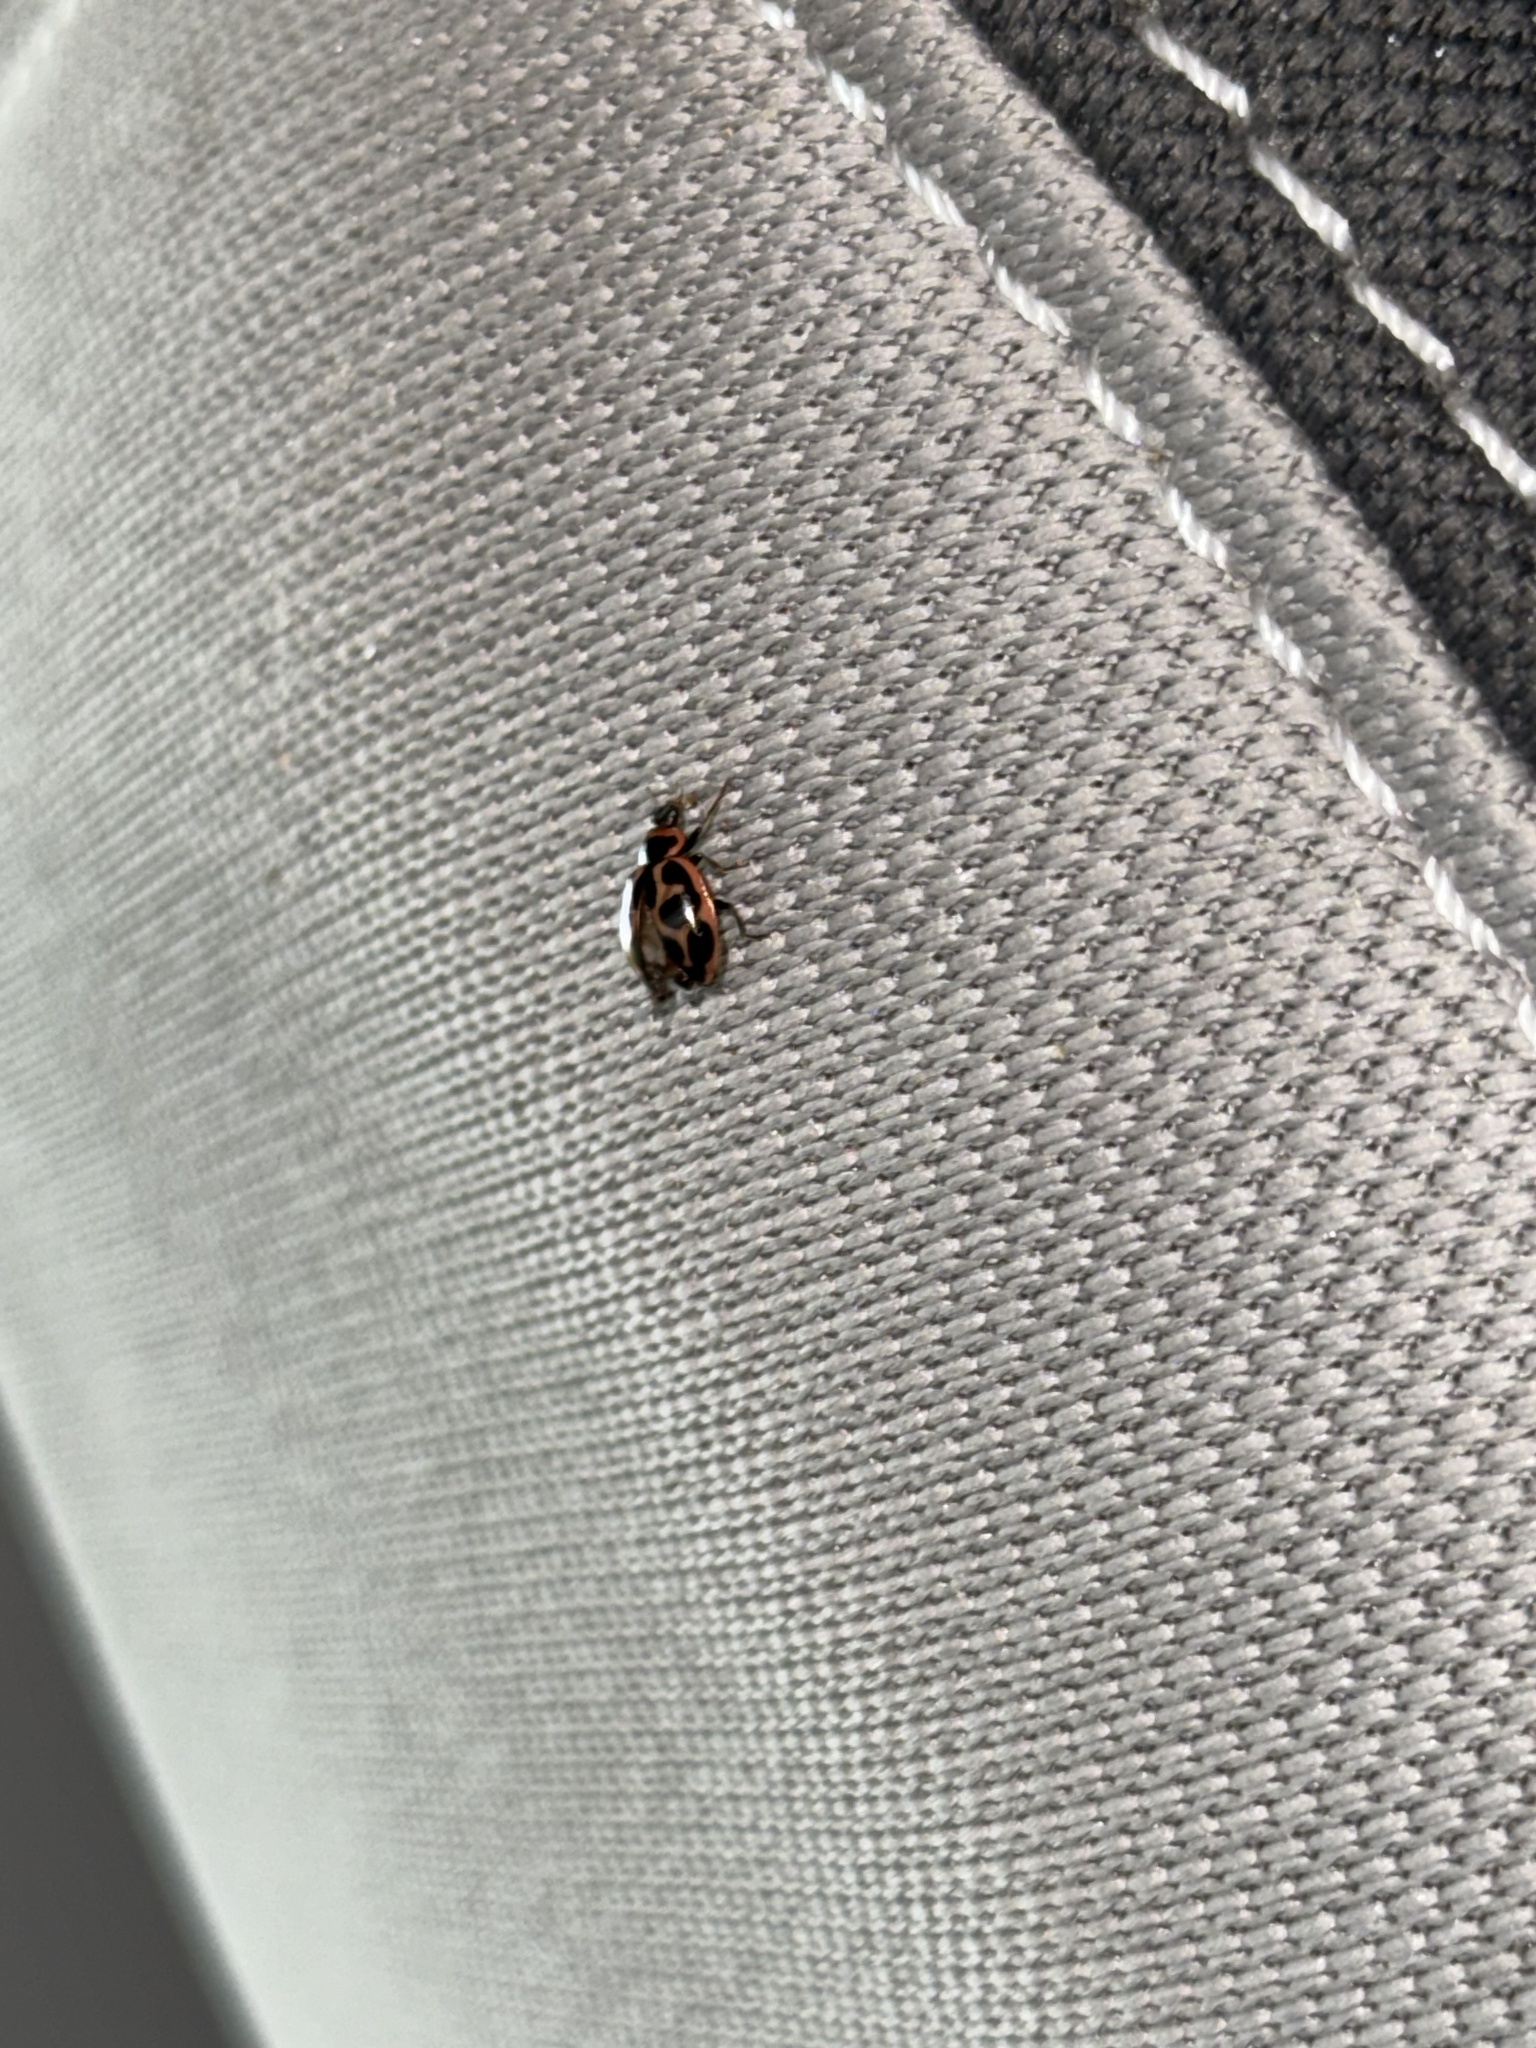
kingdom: Animalia
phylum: Arthropoda
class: Insecta
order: Coleoptera
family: Coccinellidae
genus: Naemia
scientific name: Naemia seriata
